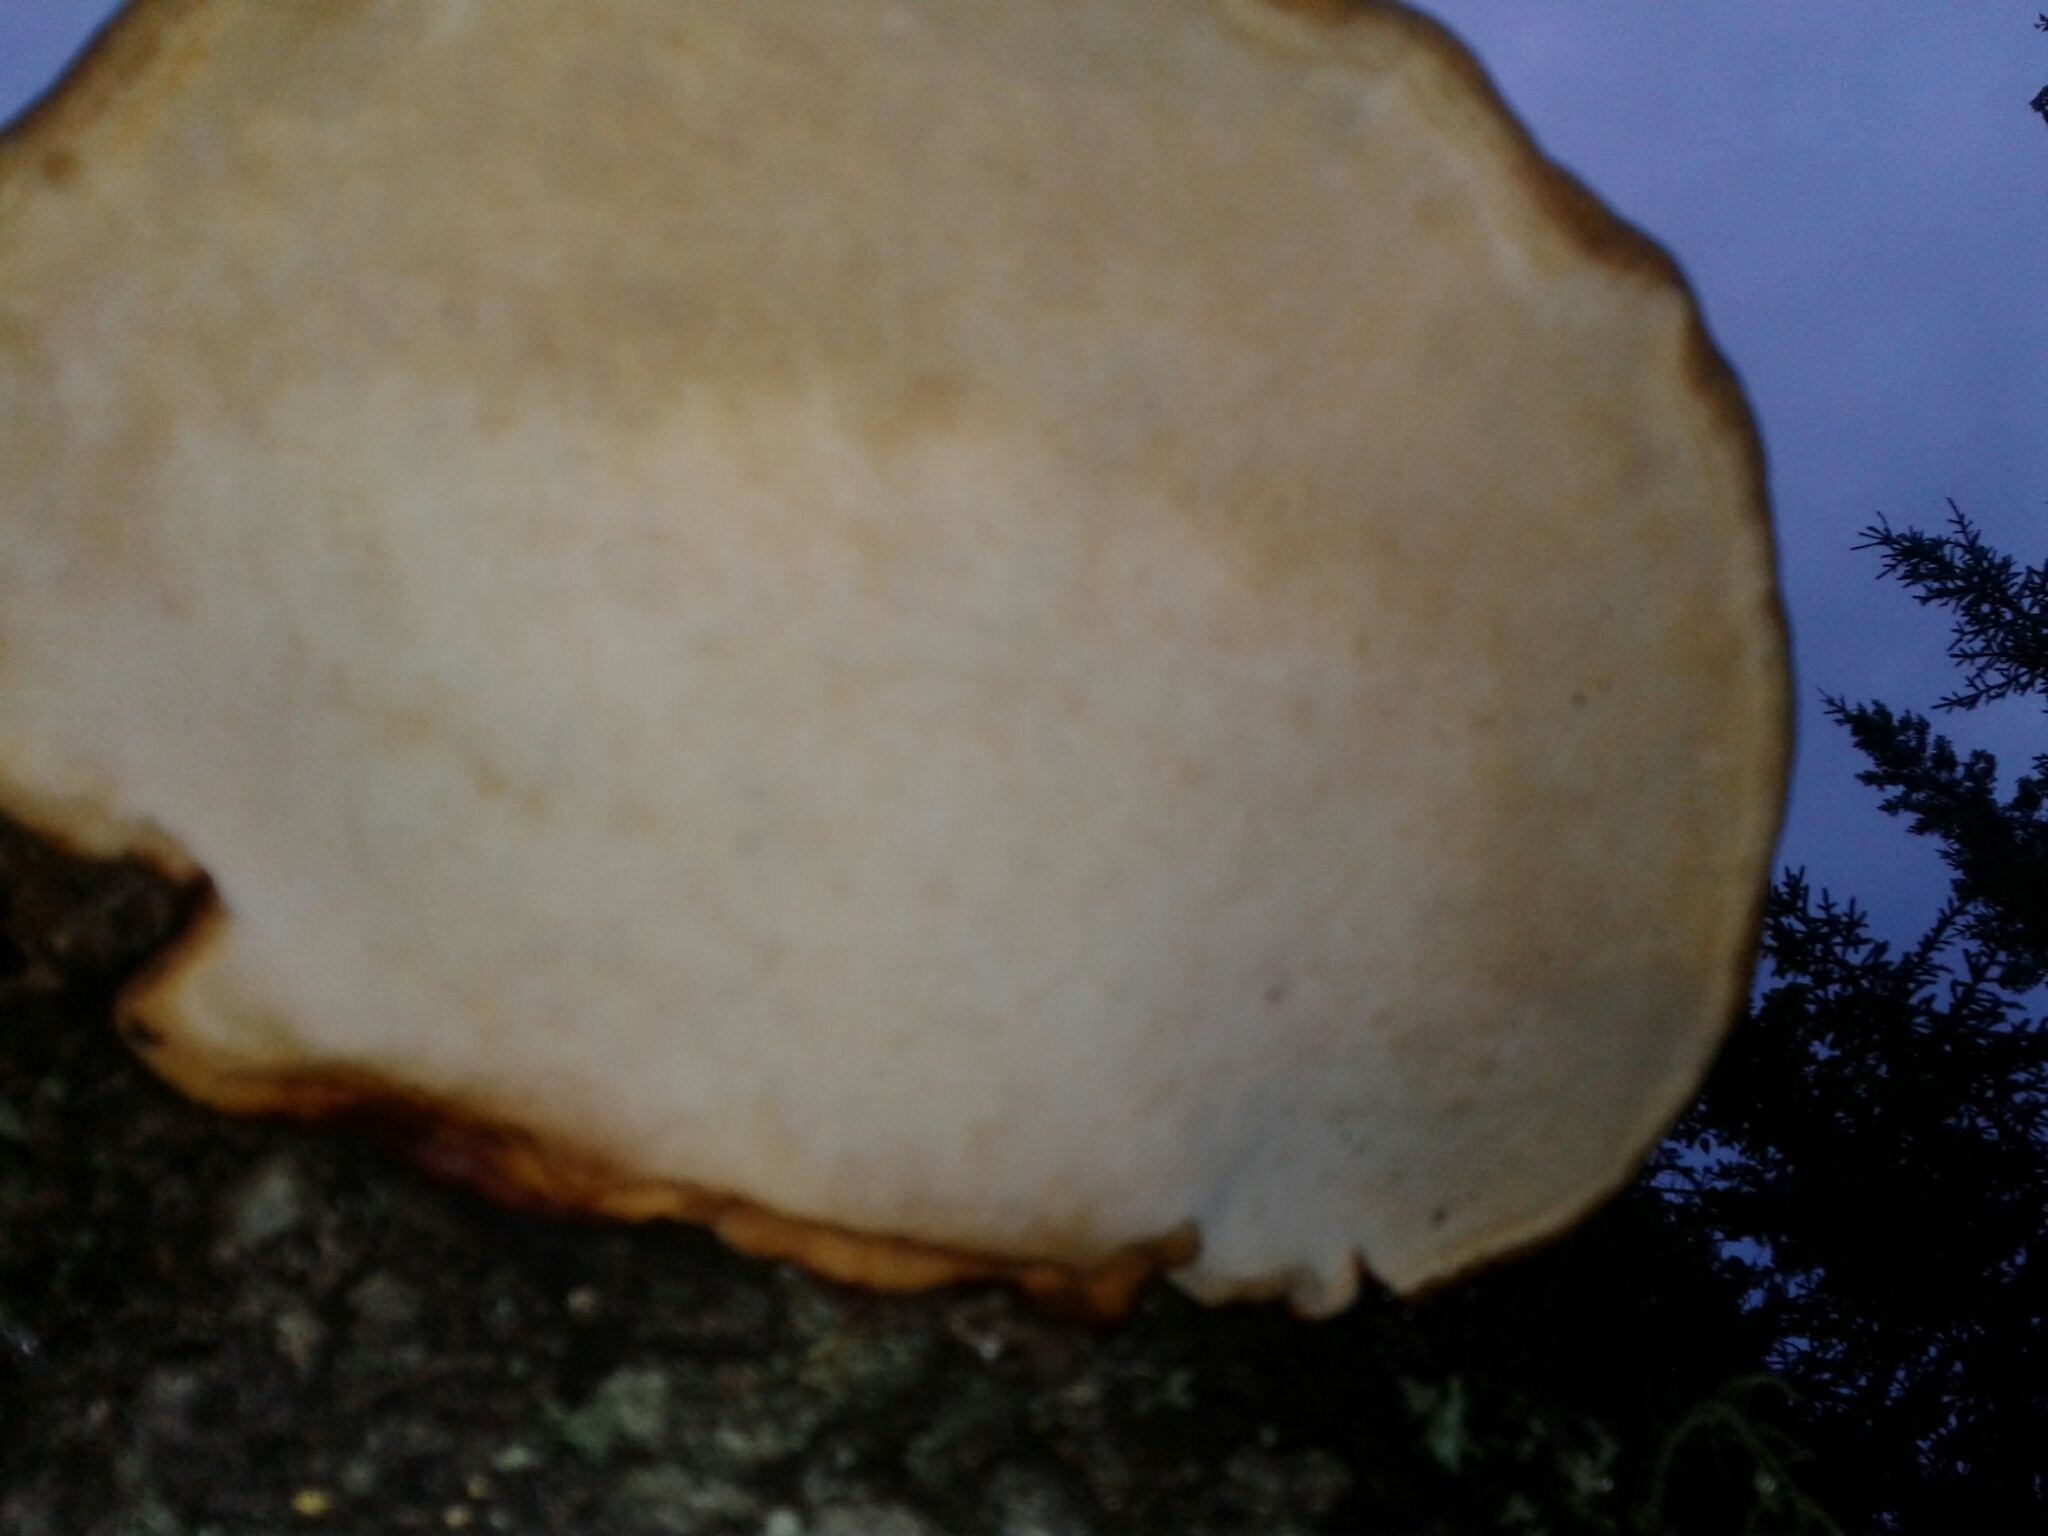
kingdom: Fungi
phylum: Basidiomycota
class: Agaricomycetes
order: Polyporales
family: Fomitopsidaceae
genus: Fomitopsis
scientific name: Fomitopsis mounceae
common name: Northern red belt
